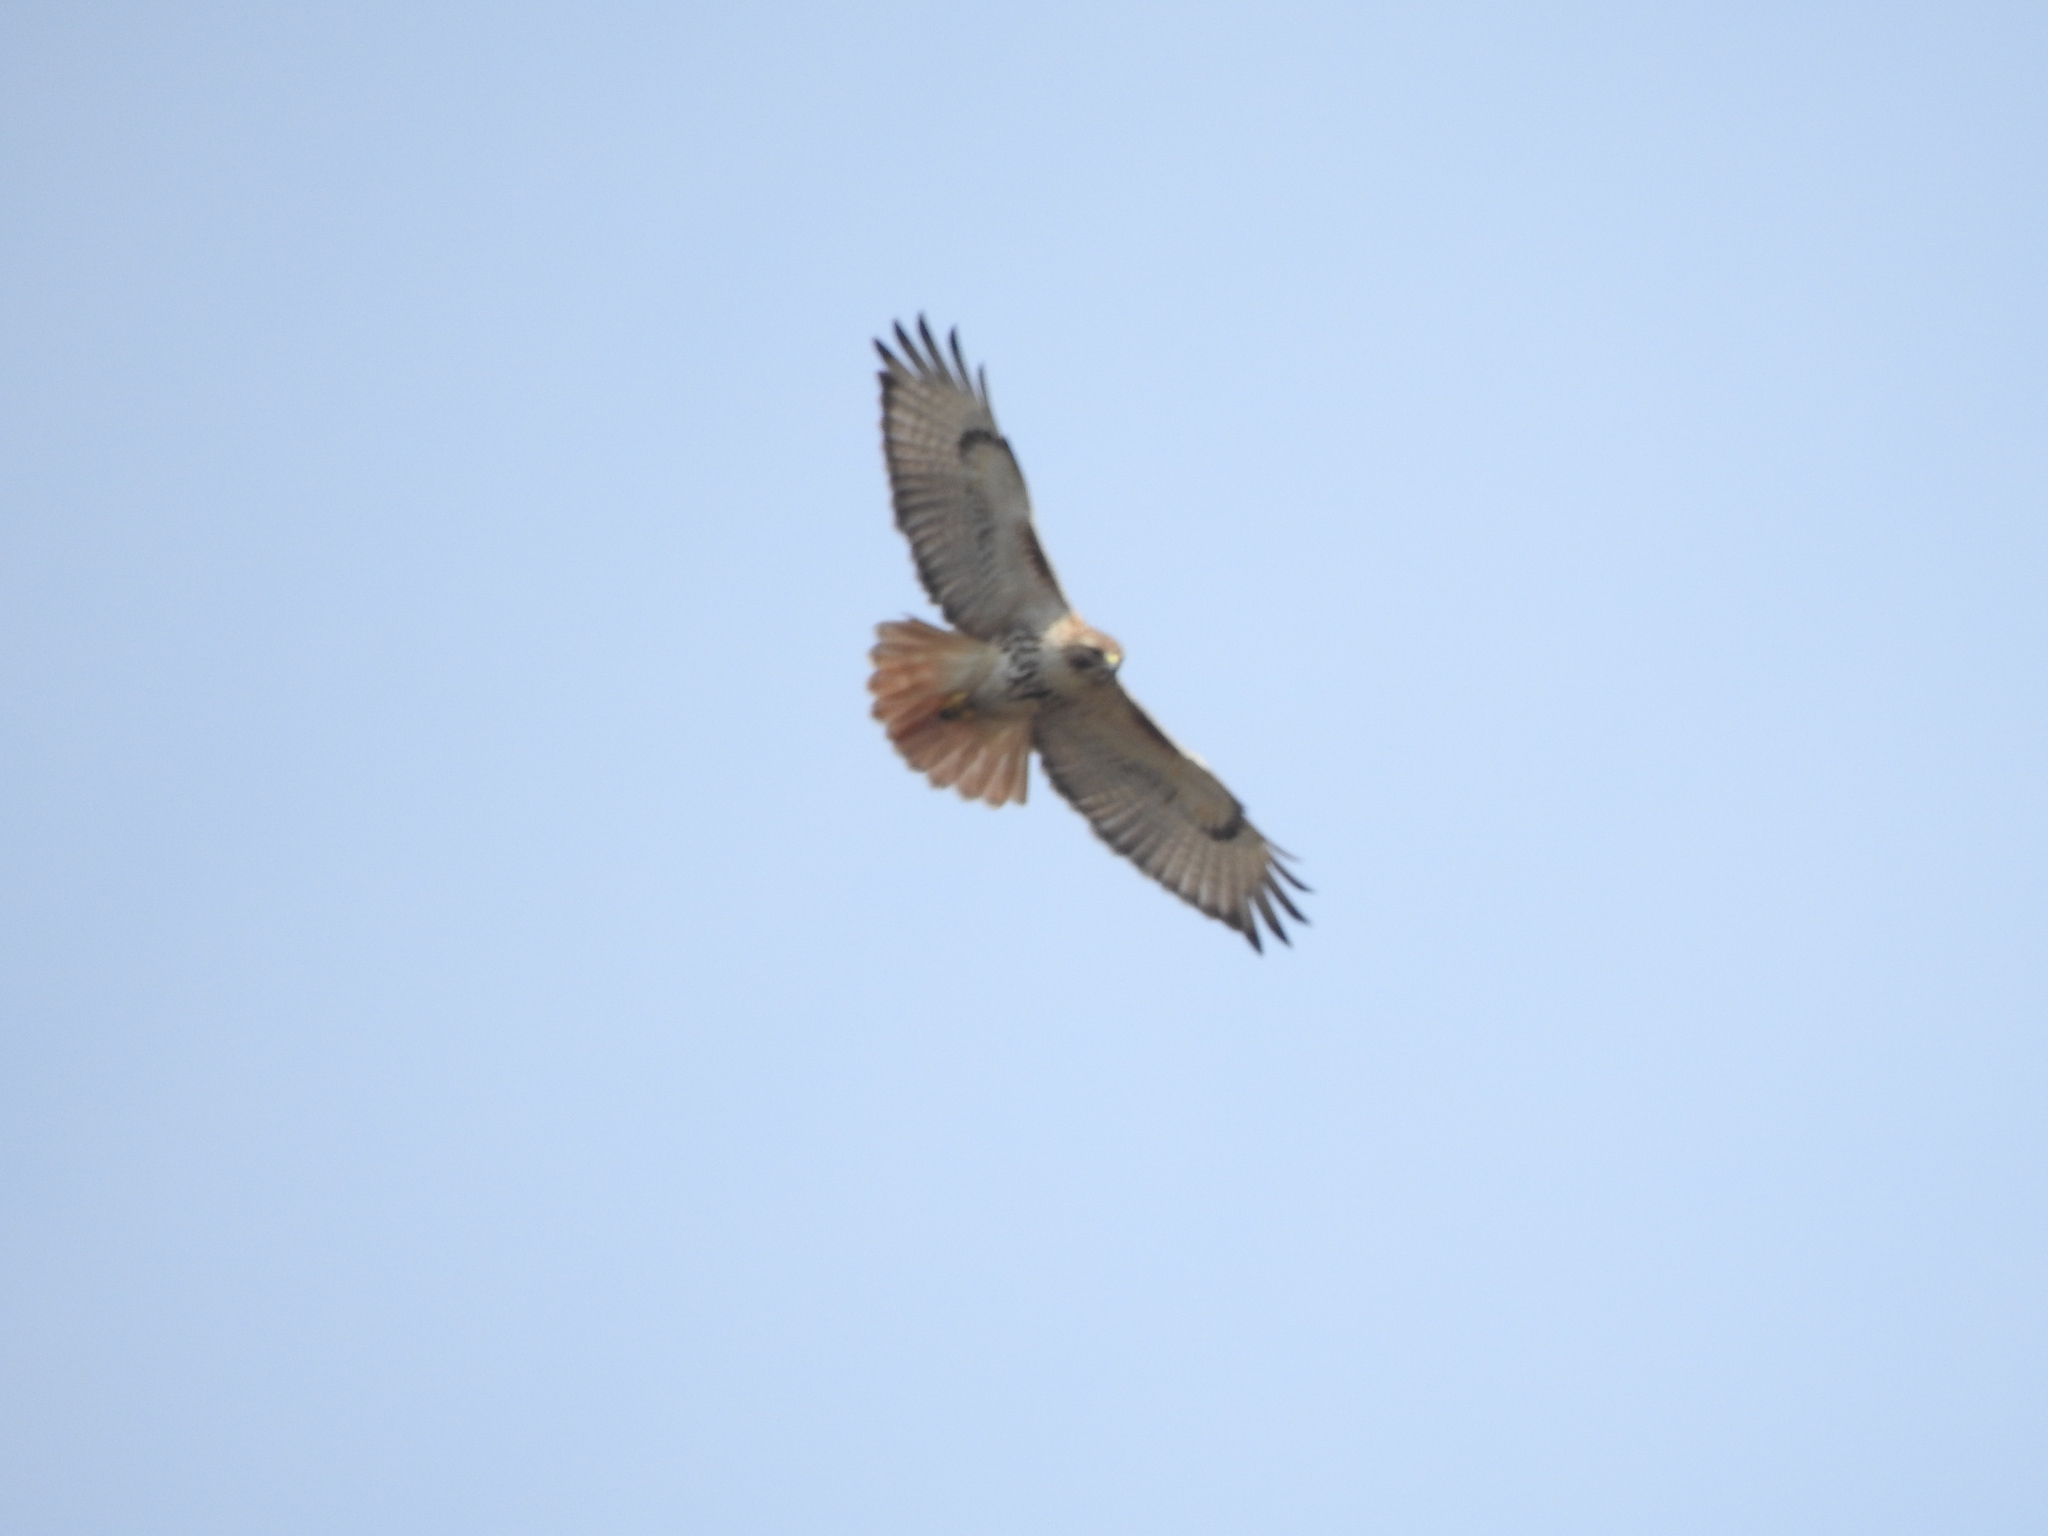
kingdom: Animalia
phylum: Chordata
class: Aves
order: Accipitriformes
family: Accipitridae
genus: Buteo
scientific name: Buteo jamaicensis
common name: Red-tailed hawk
